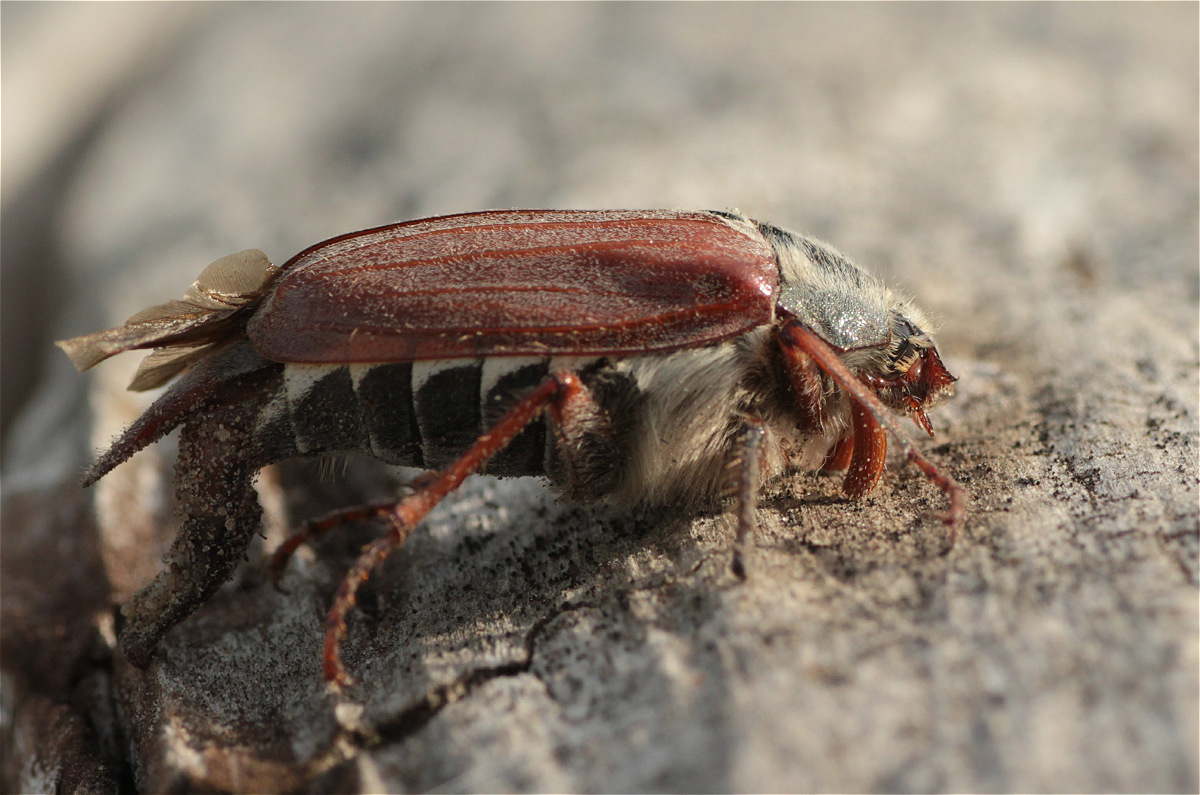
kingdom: Animalia
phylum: Arthropoda
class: Insecta
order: Coleoptera
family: Scarabaeidae
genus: Melolontha
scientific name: Melolontha melolontha
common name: Cockchafer maybeetle
